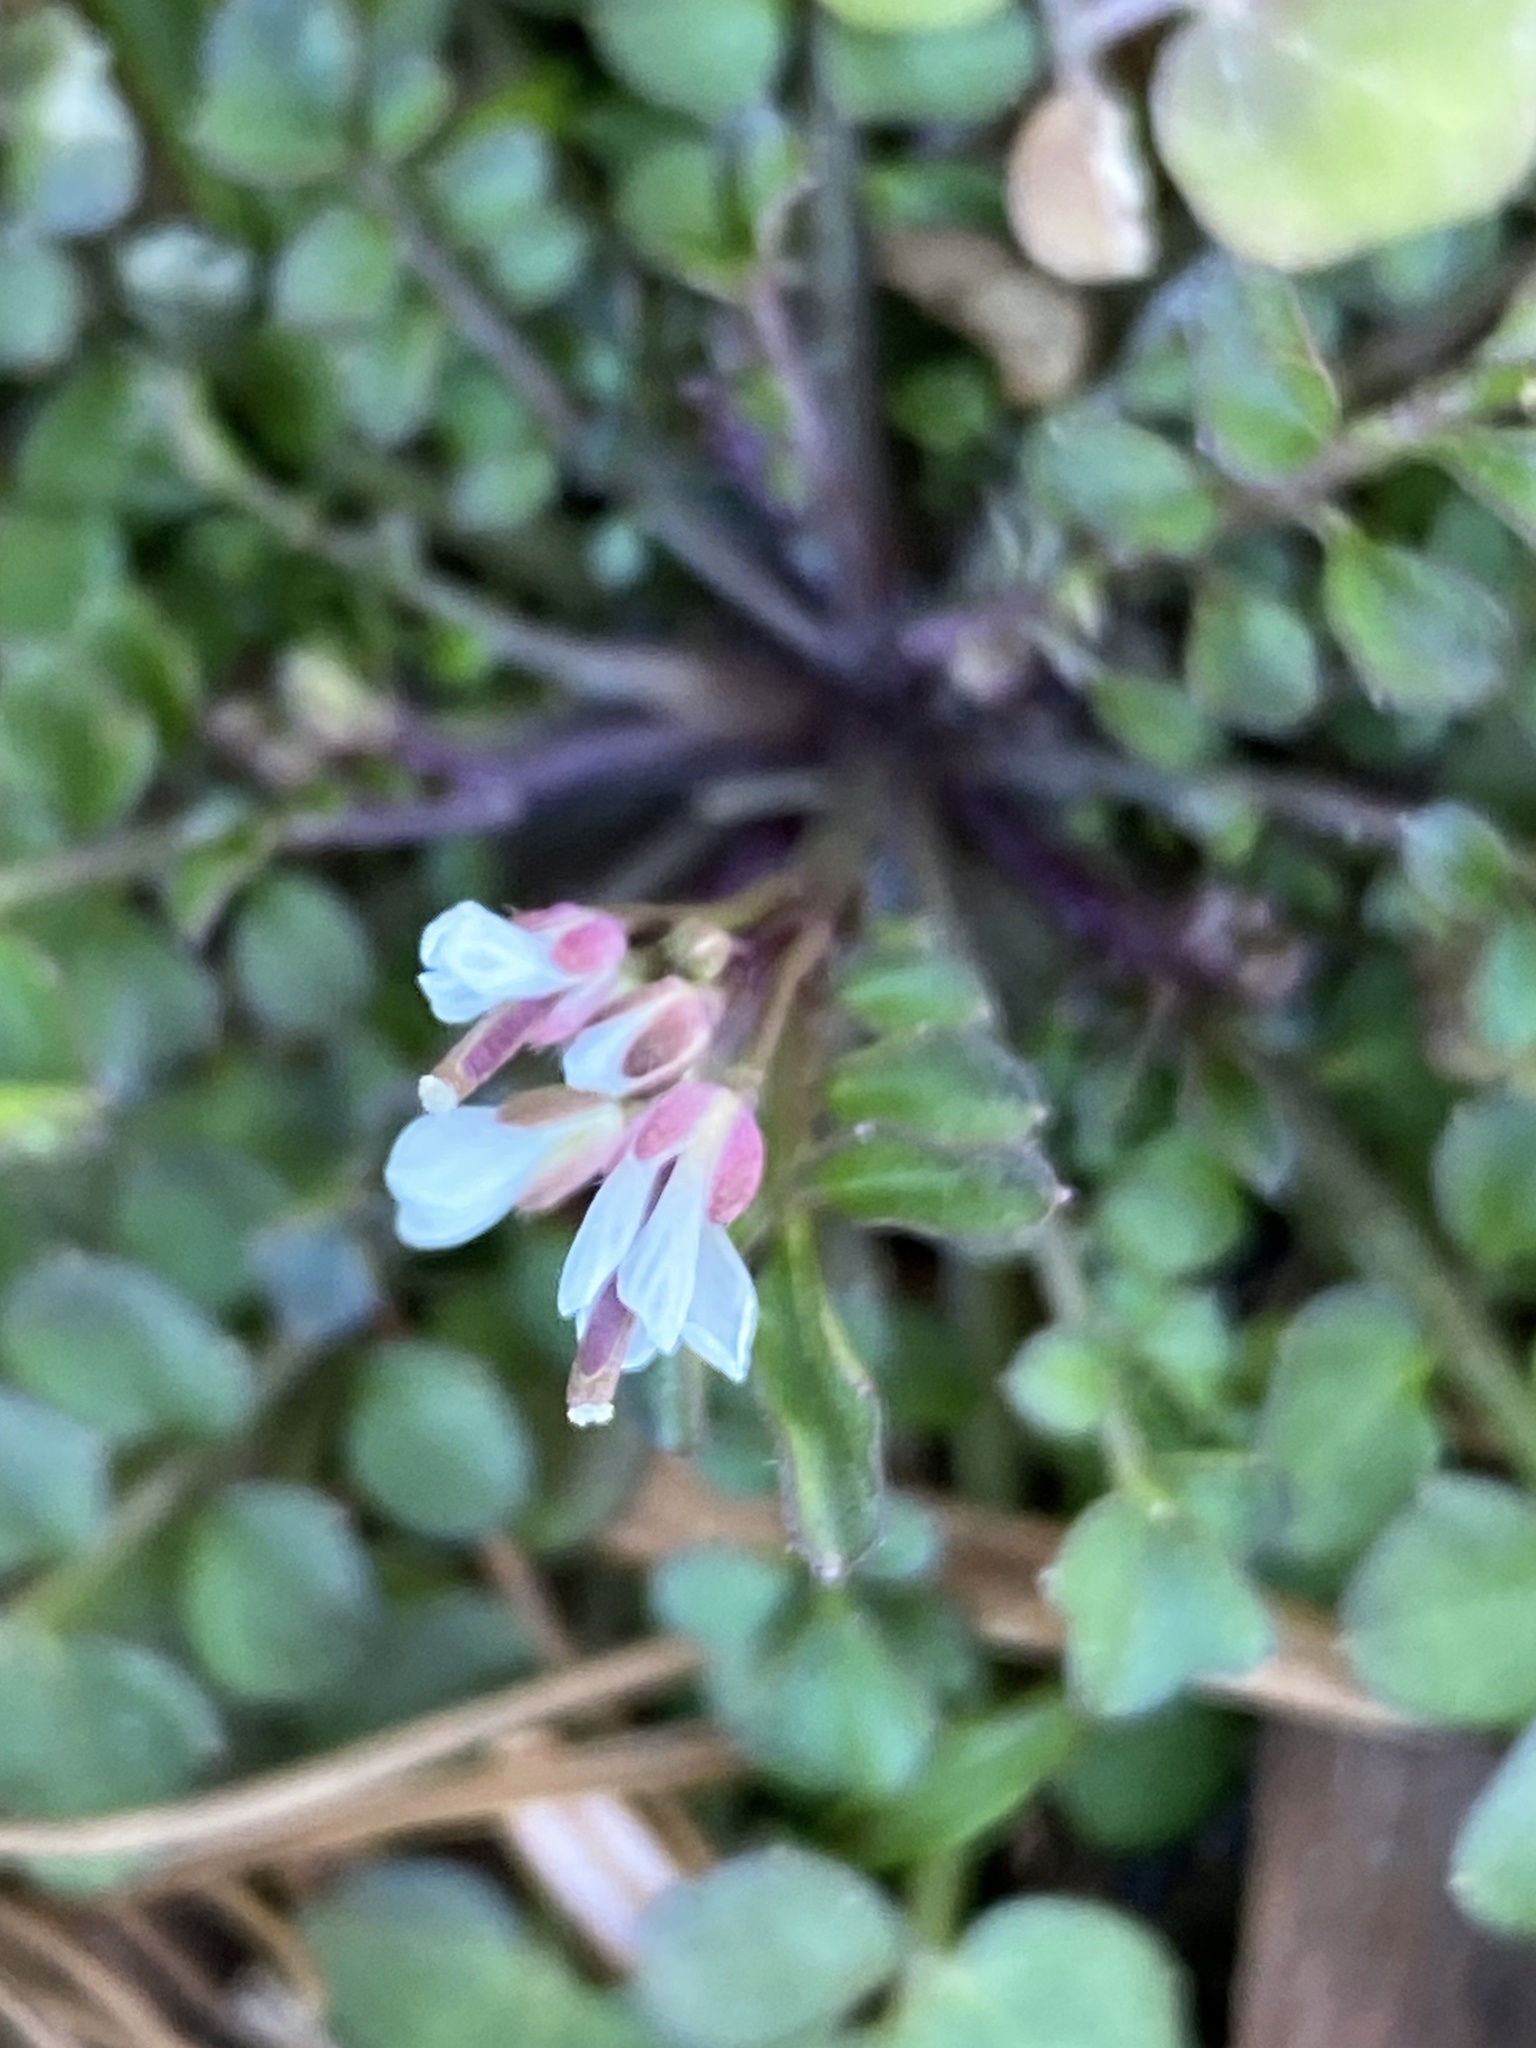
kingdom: Plantae
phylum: Tracheophyta
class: Magnoliopsida
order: Brassicales
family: Brassicaceae
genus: Cardamine
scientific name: Cardamine hirsuta
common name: Hairy bittercress
